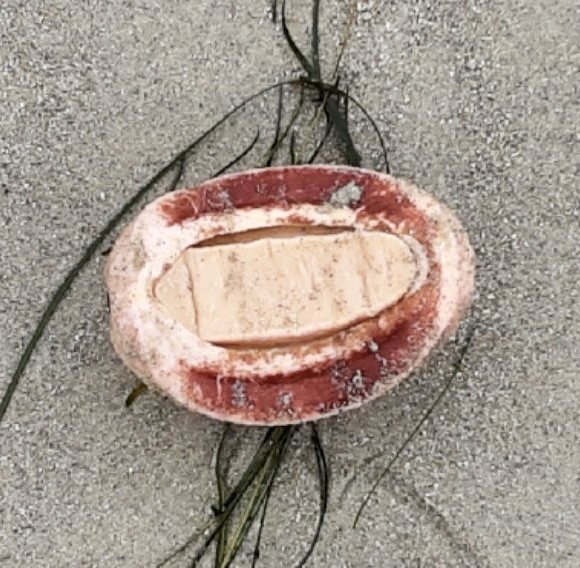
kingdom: Animalia
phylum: Mollusca
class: Polyplacophora
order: Chitonida
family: Acanthochitonidae
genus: Cryptochiton
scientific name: Cryptochiton stelleri
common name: Giant pacific chiton
